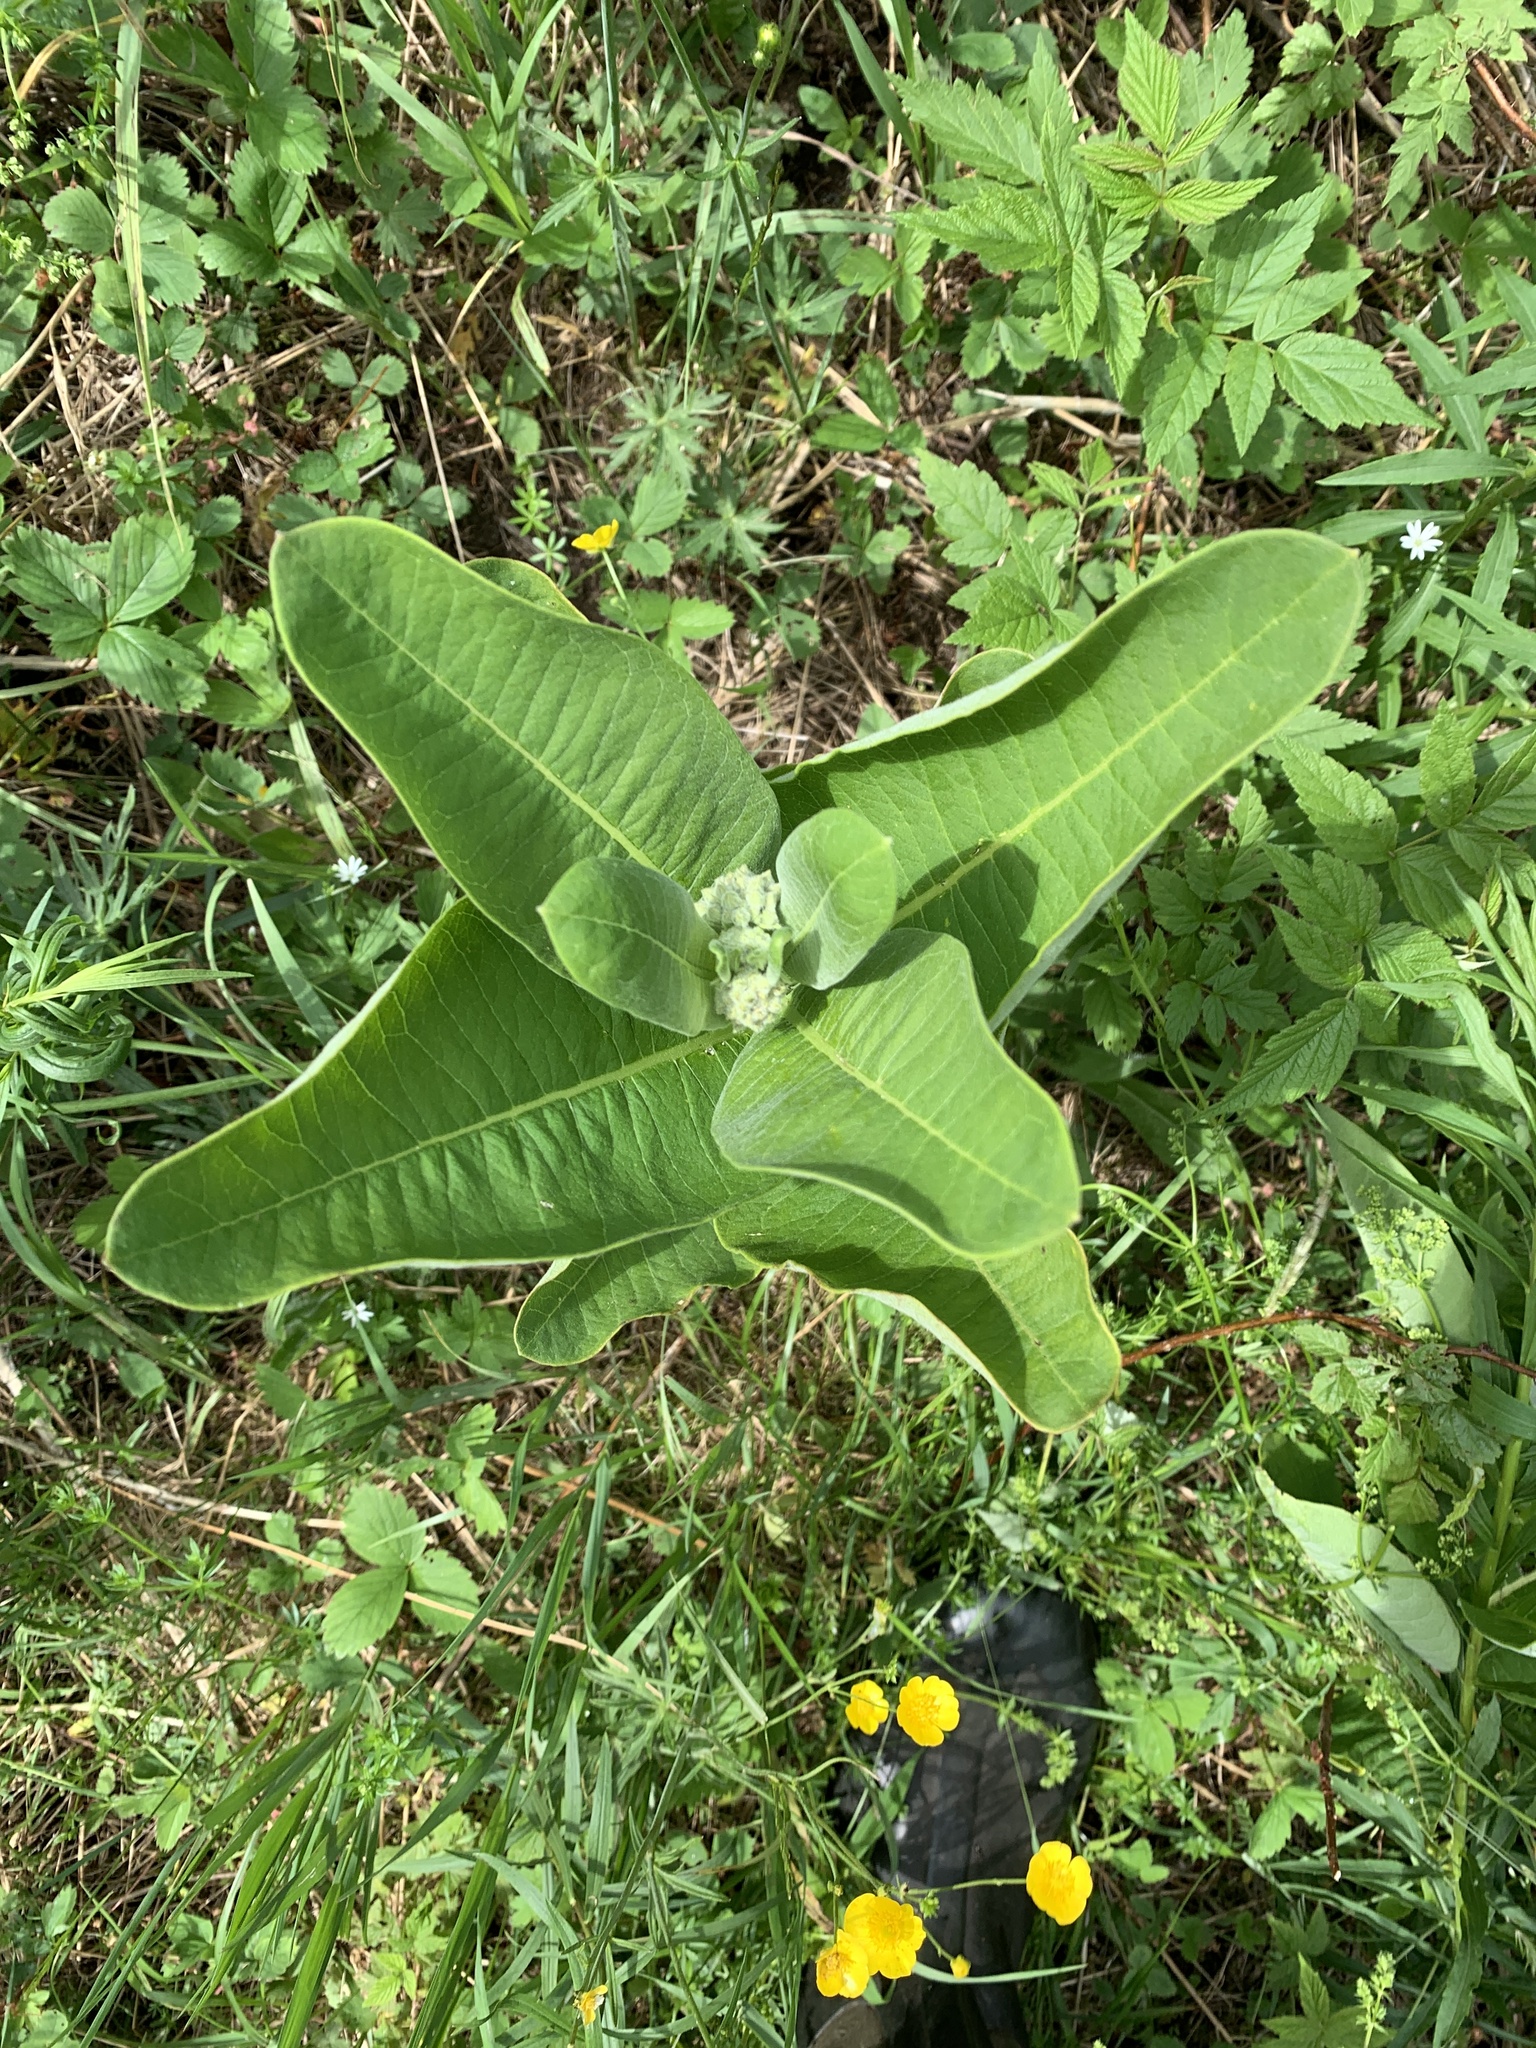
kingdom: Plantae
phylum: Tracheophyta
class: Magnoliopsida
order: Gentianales
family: Apocynaceae
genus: Asclepias
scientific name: Asclepias syriaca
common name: Common milkweed
